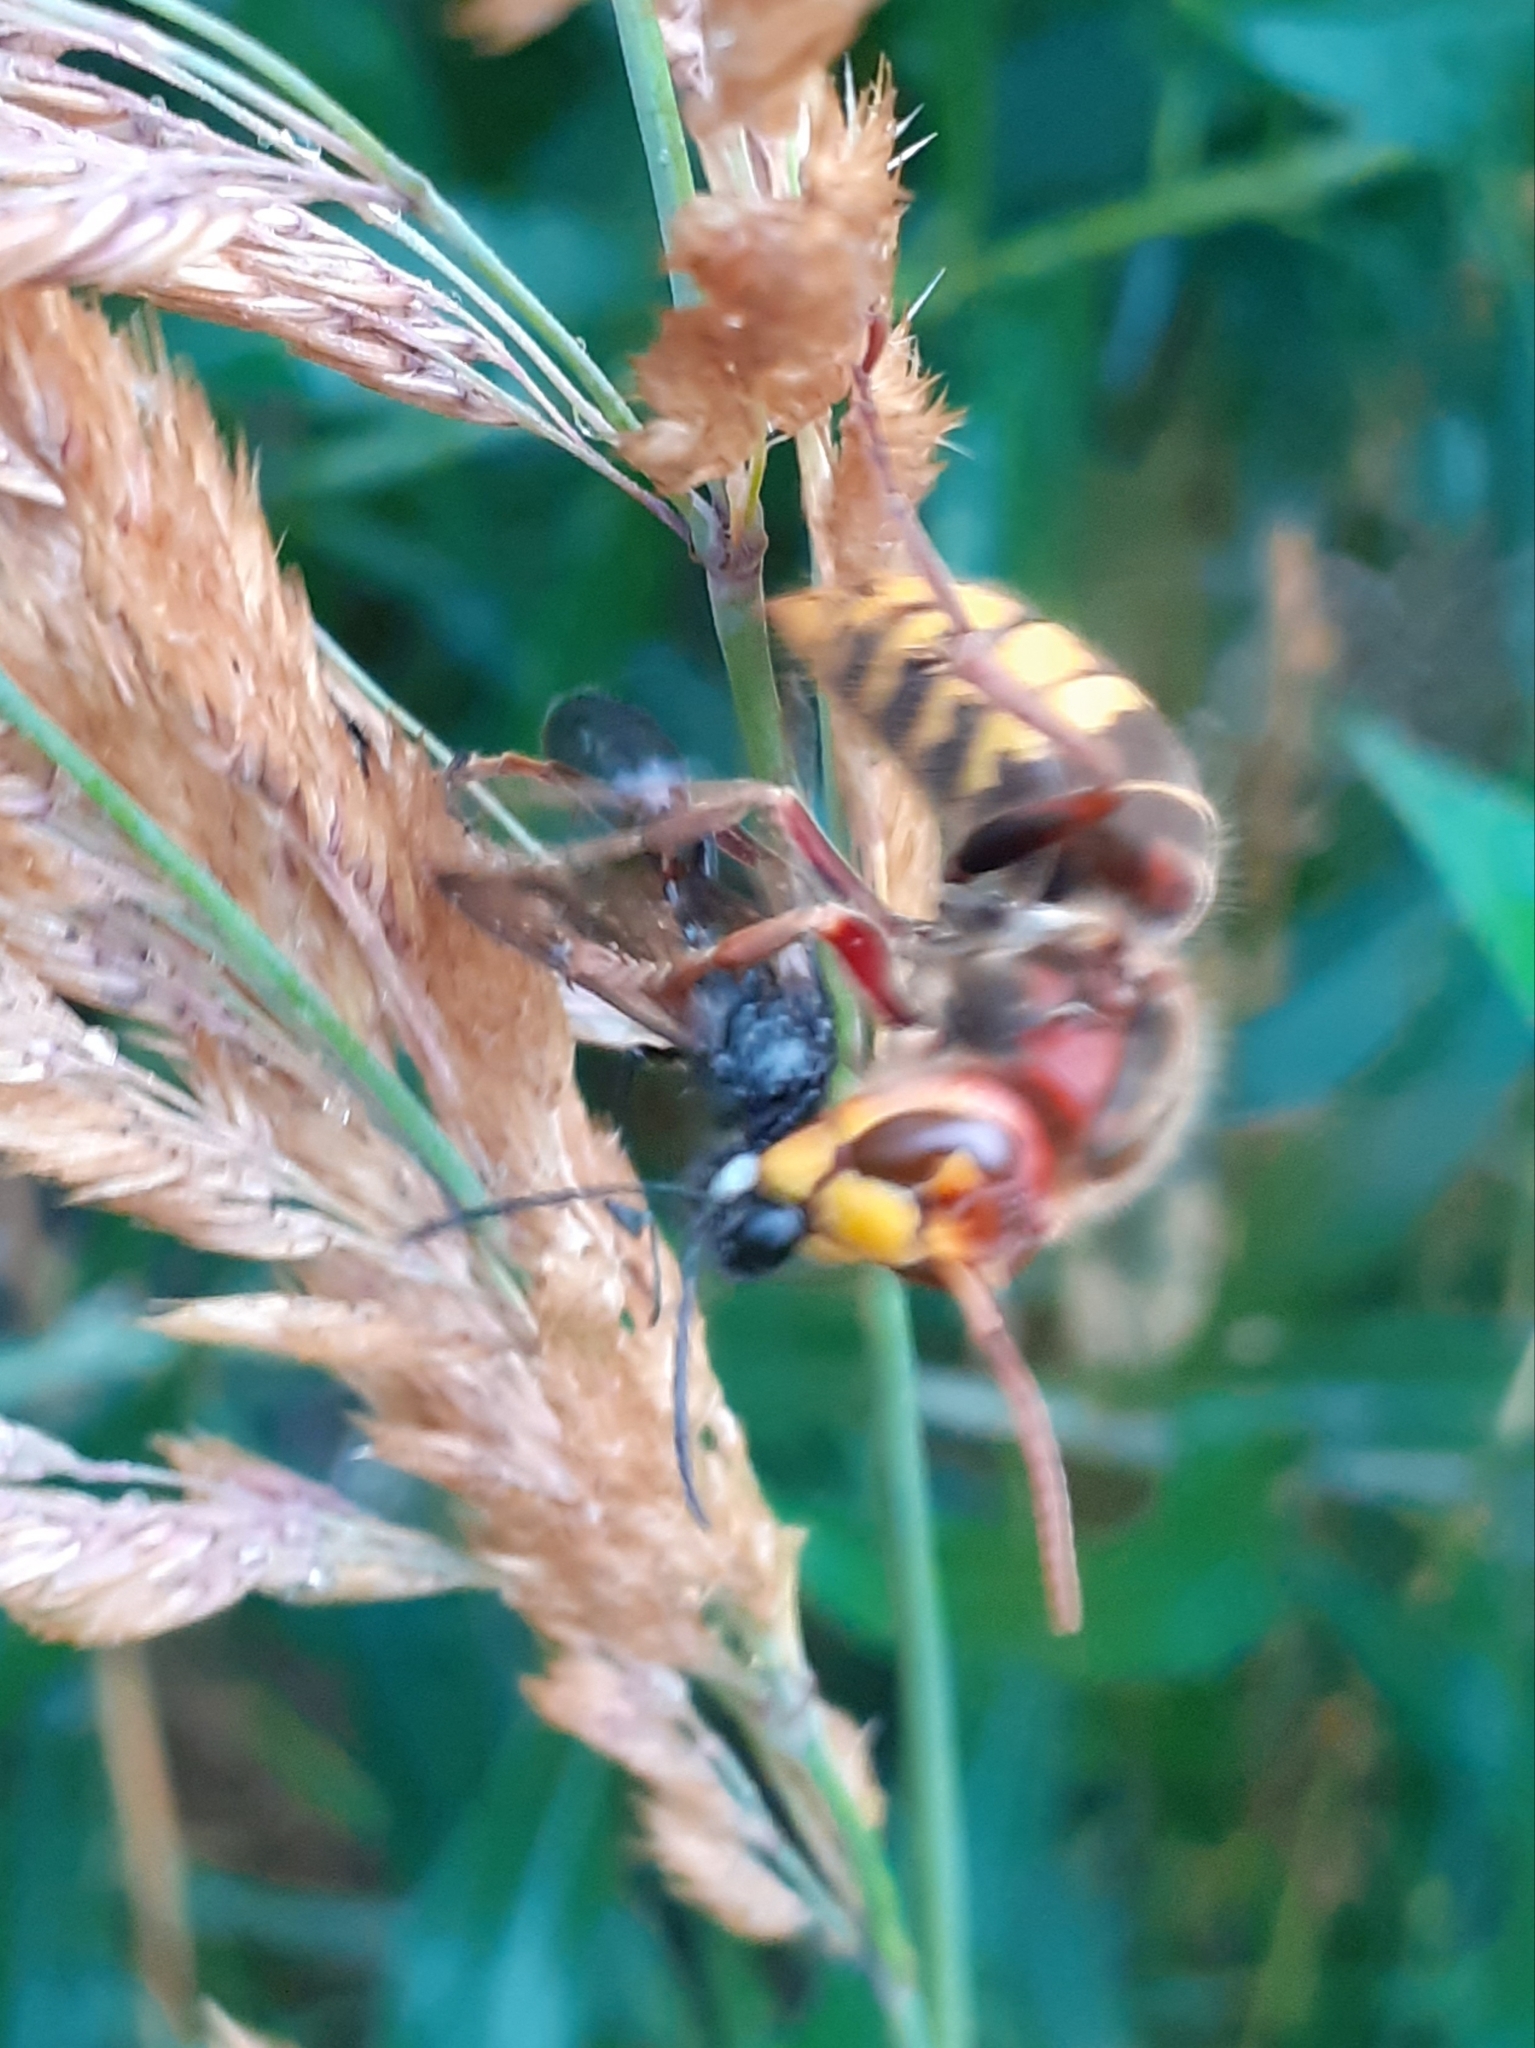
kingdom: Animalia
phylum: Arthropoda
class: Insecta
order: Hymenoptera
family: Vespidae
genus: Vespa
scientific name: Vespa crabro
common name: Hornet
